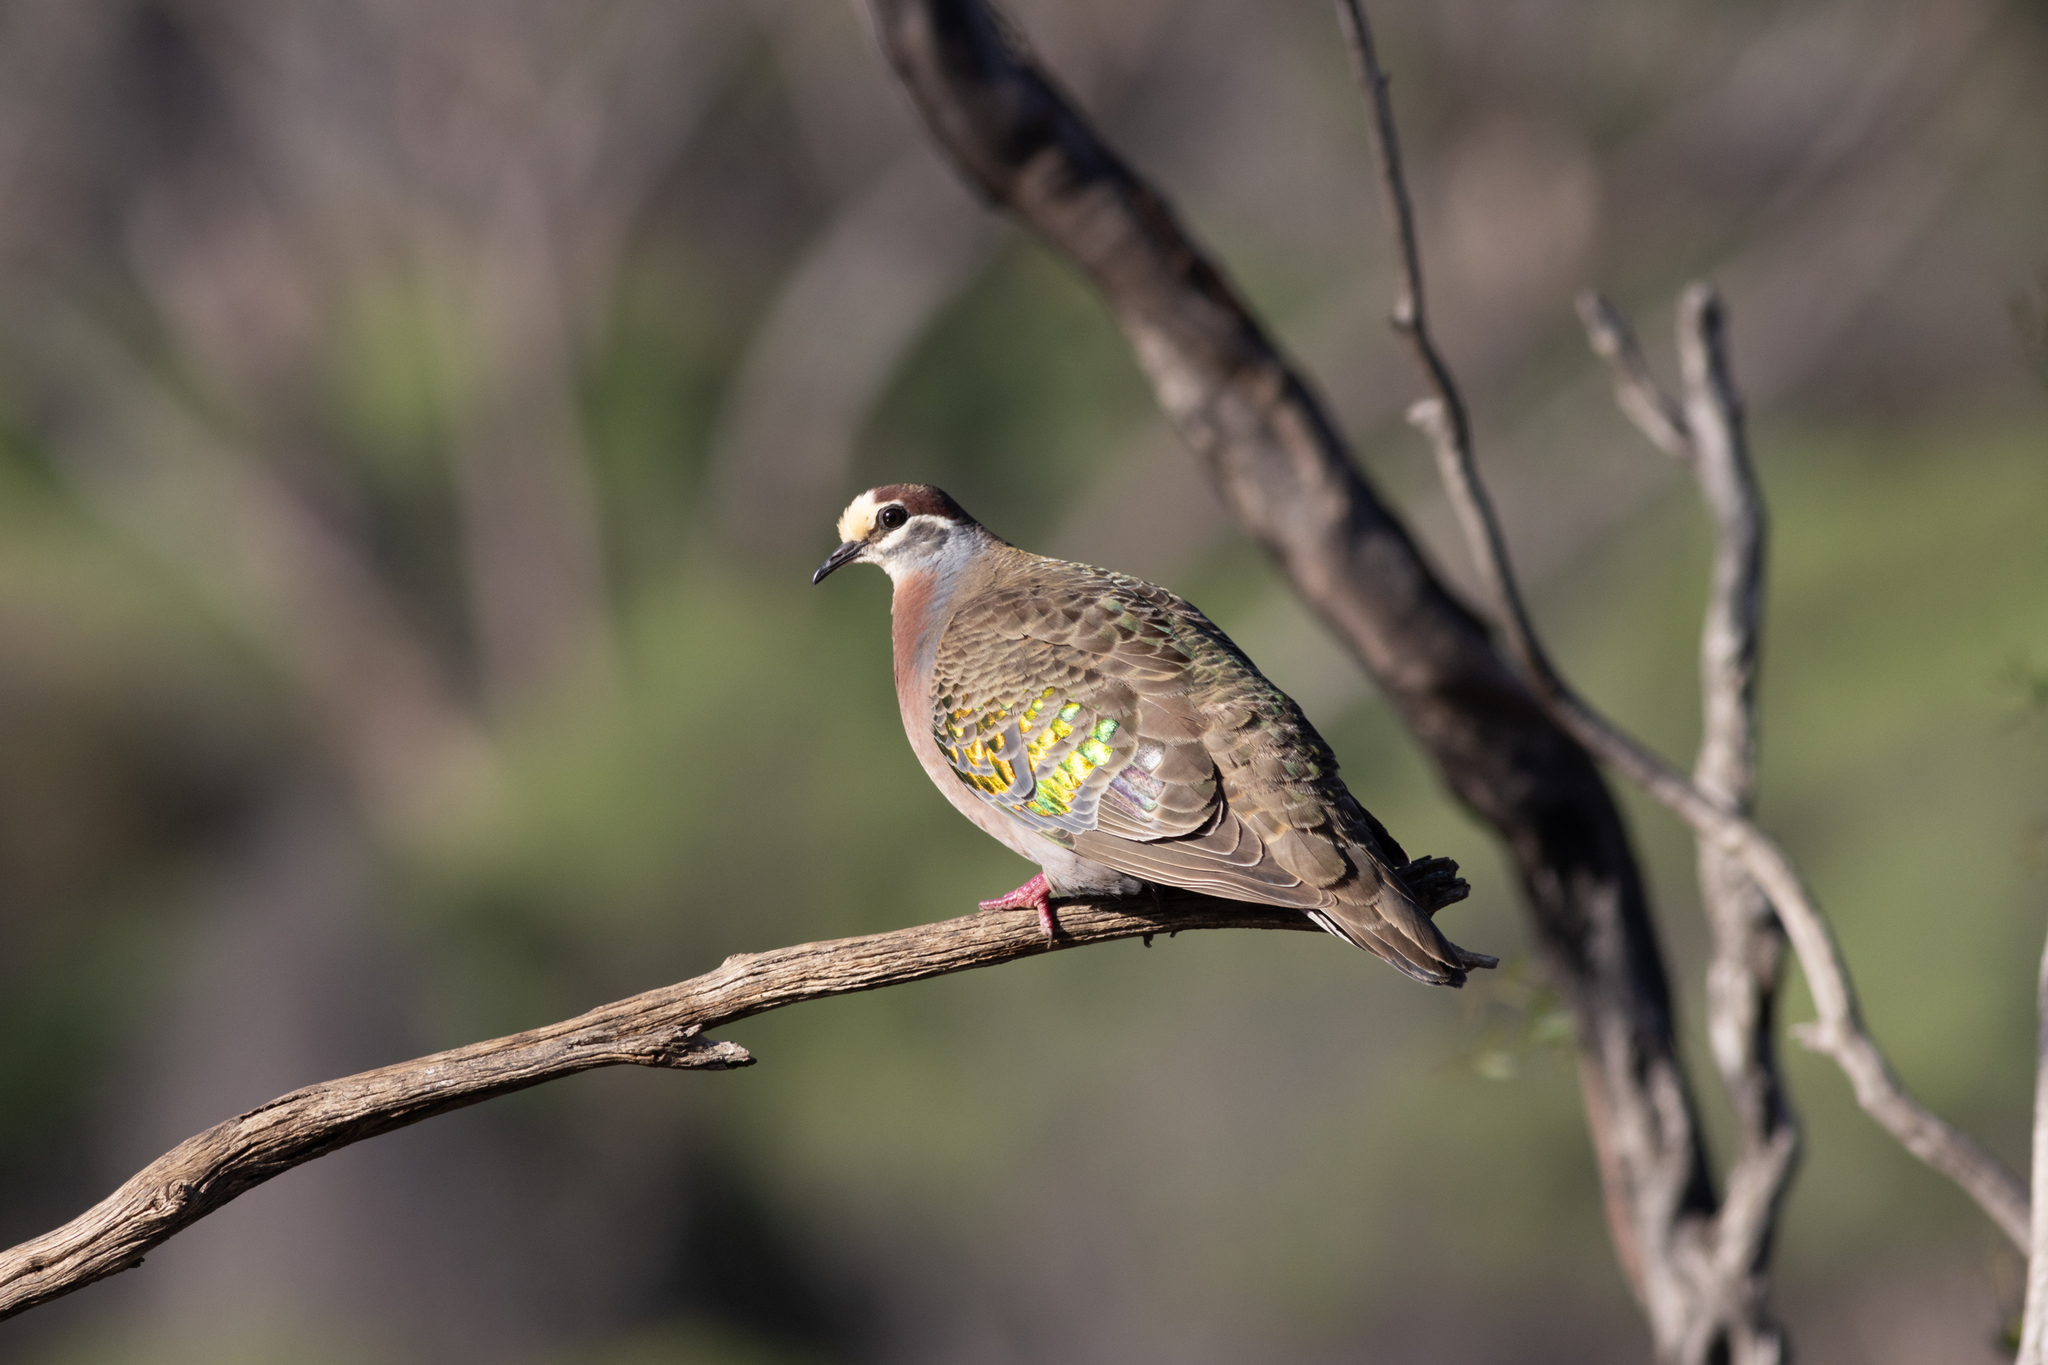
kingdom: Animalia
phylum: Chordata
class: Aves
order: Columbiformes
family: Columbidae
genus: Phaps
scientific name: Phaps chalcoptera
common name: Common bronzewing
